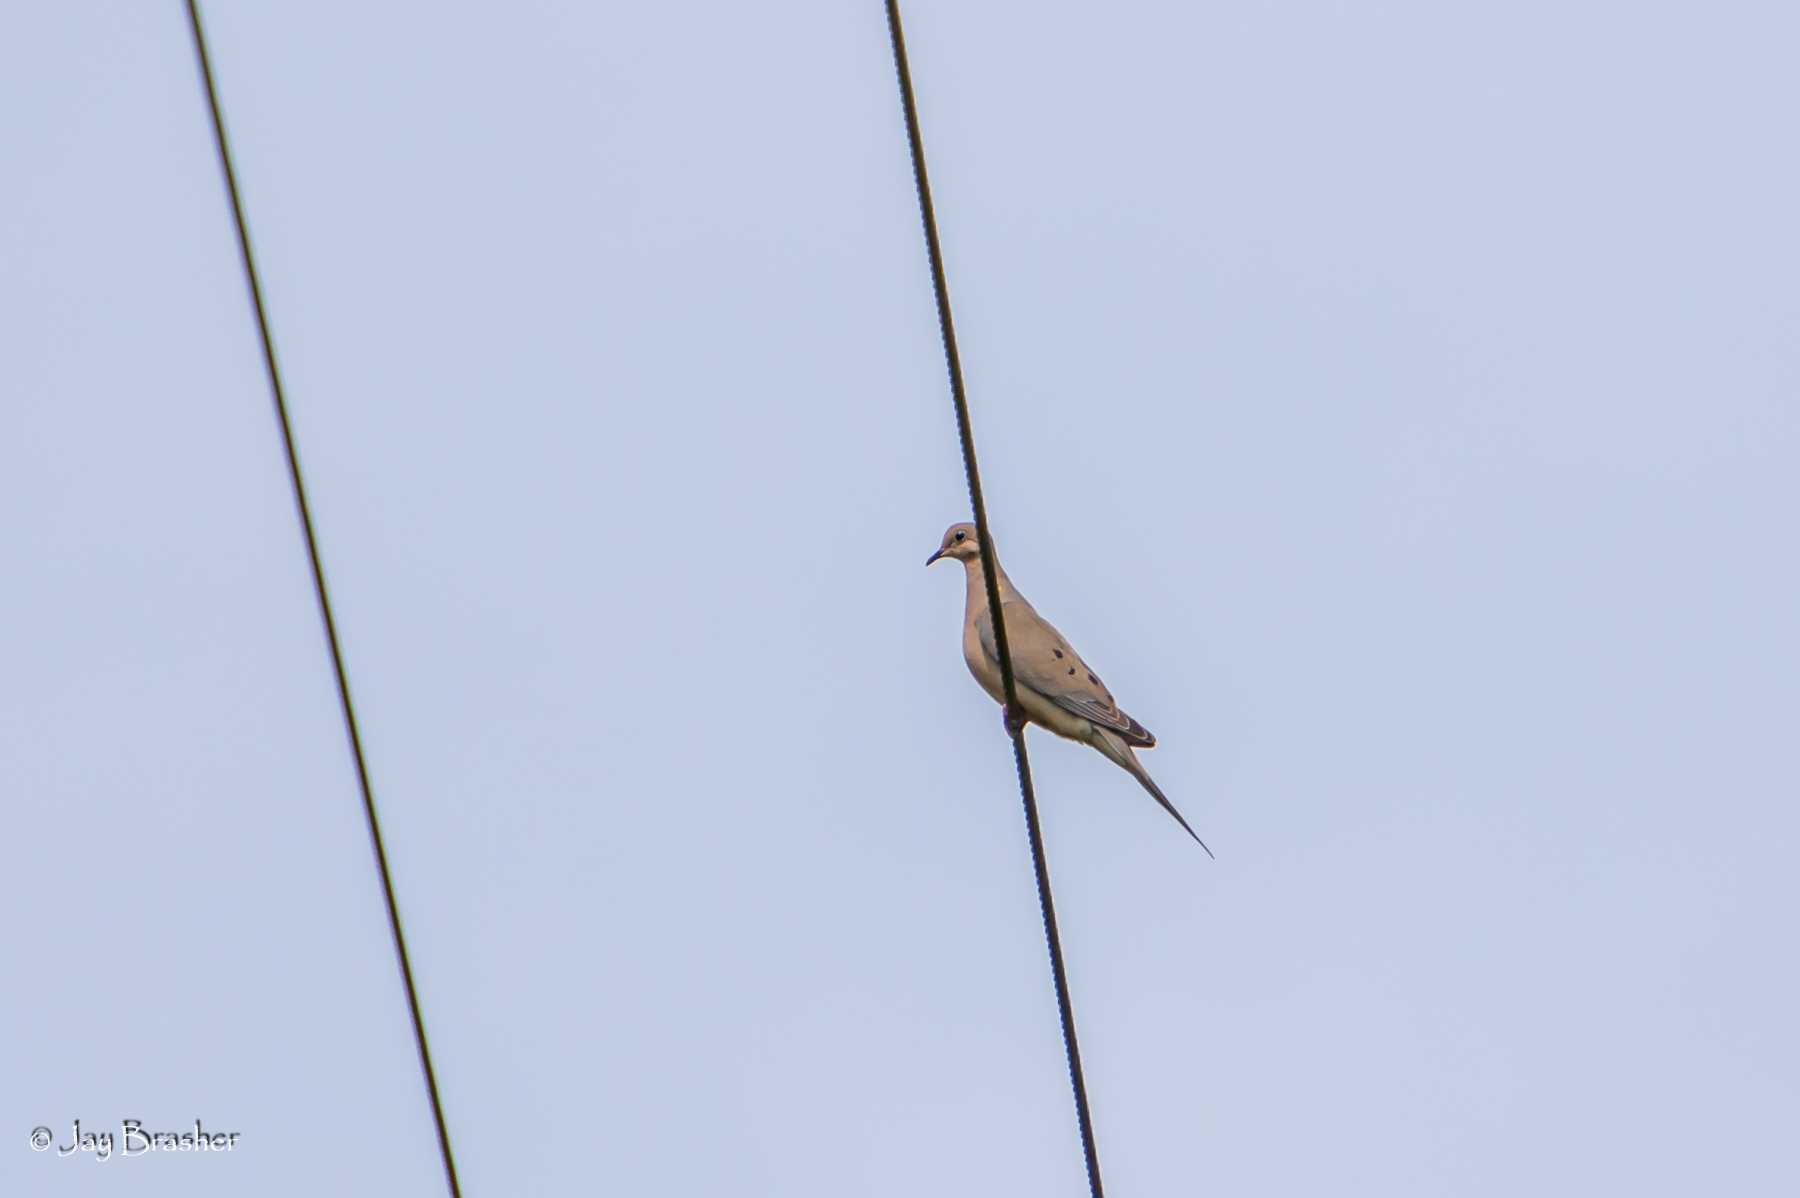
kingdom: Animalia
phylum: Chordata
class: Aves
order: Columbiformes
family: Columbidae
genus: Zenaida
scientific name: Zenaida macroura
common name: Mourning dove
